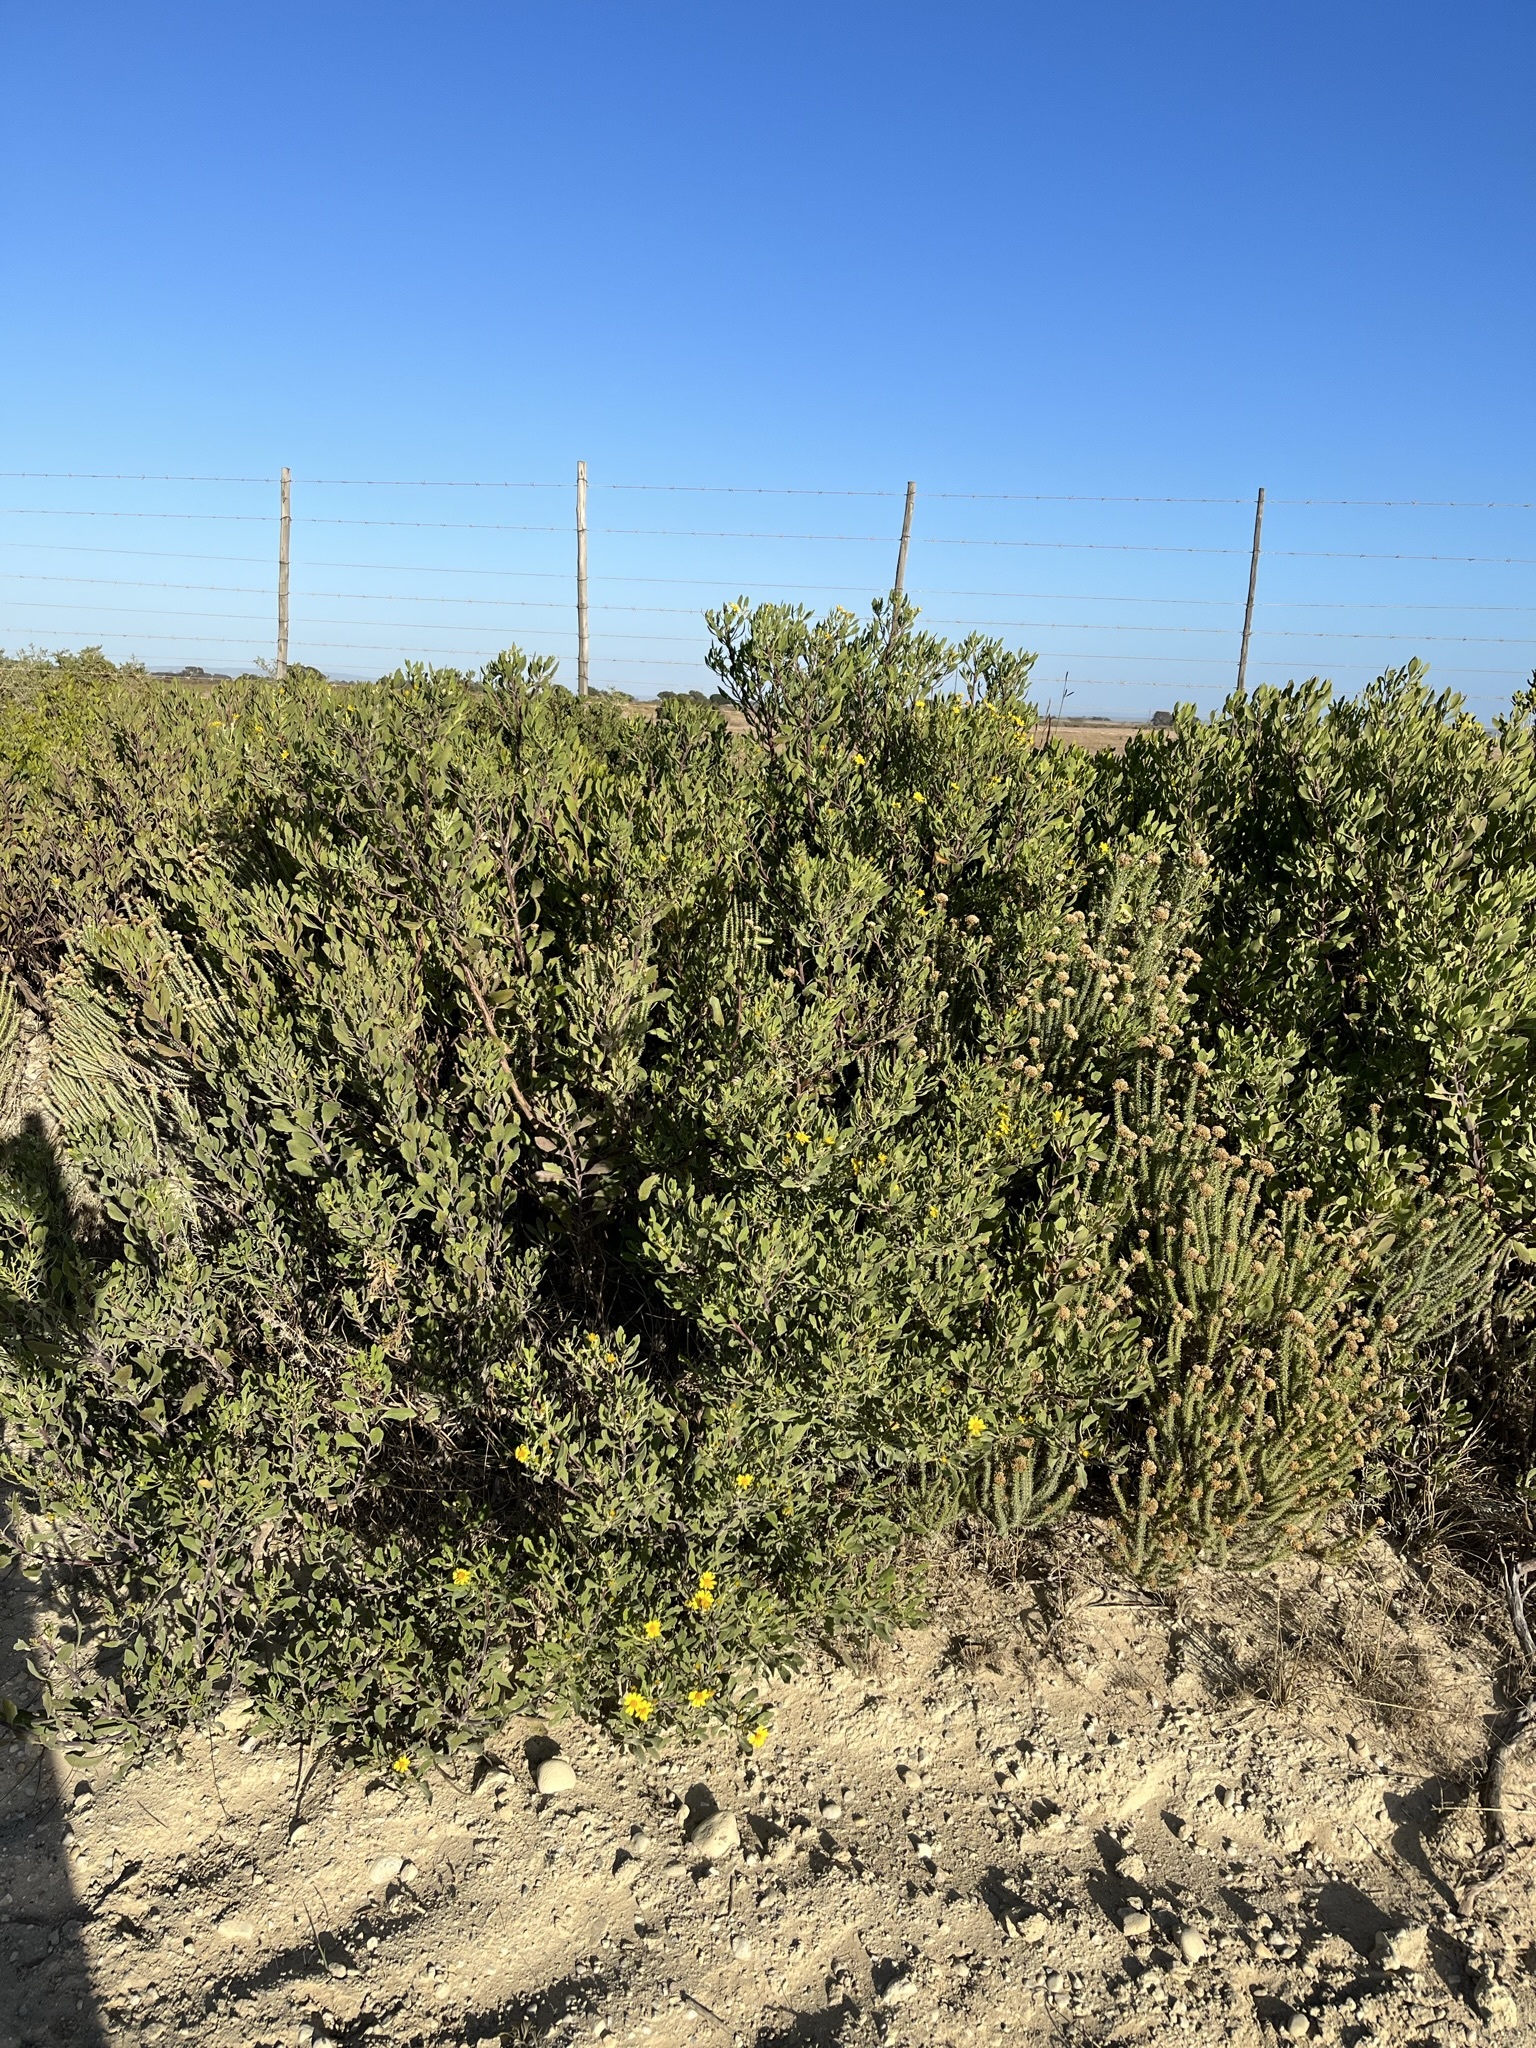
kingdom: Plantae
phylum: Tracheophyta
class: Magnoliopsida
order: Asterales
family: Asteraceae
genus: Osteospermum
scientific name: Osteospermum moniliferum
